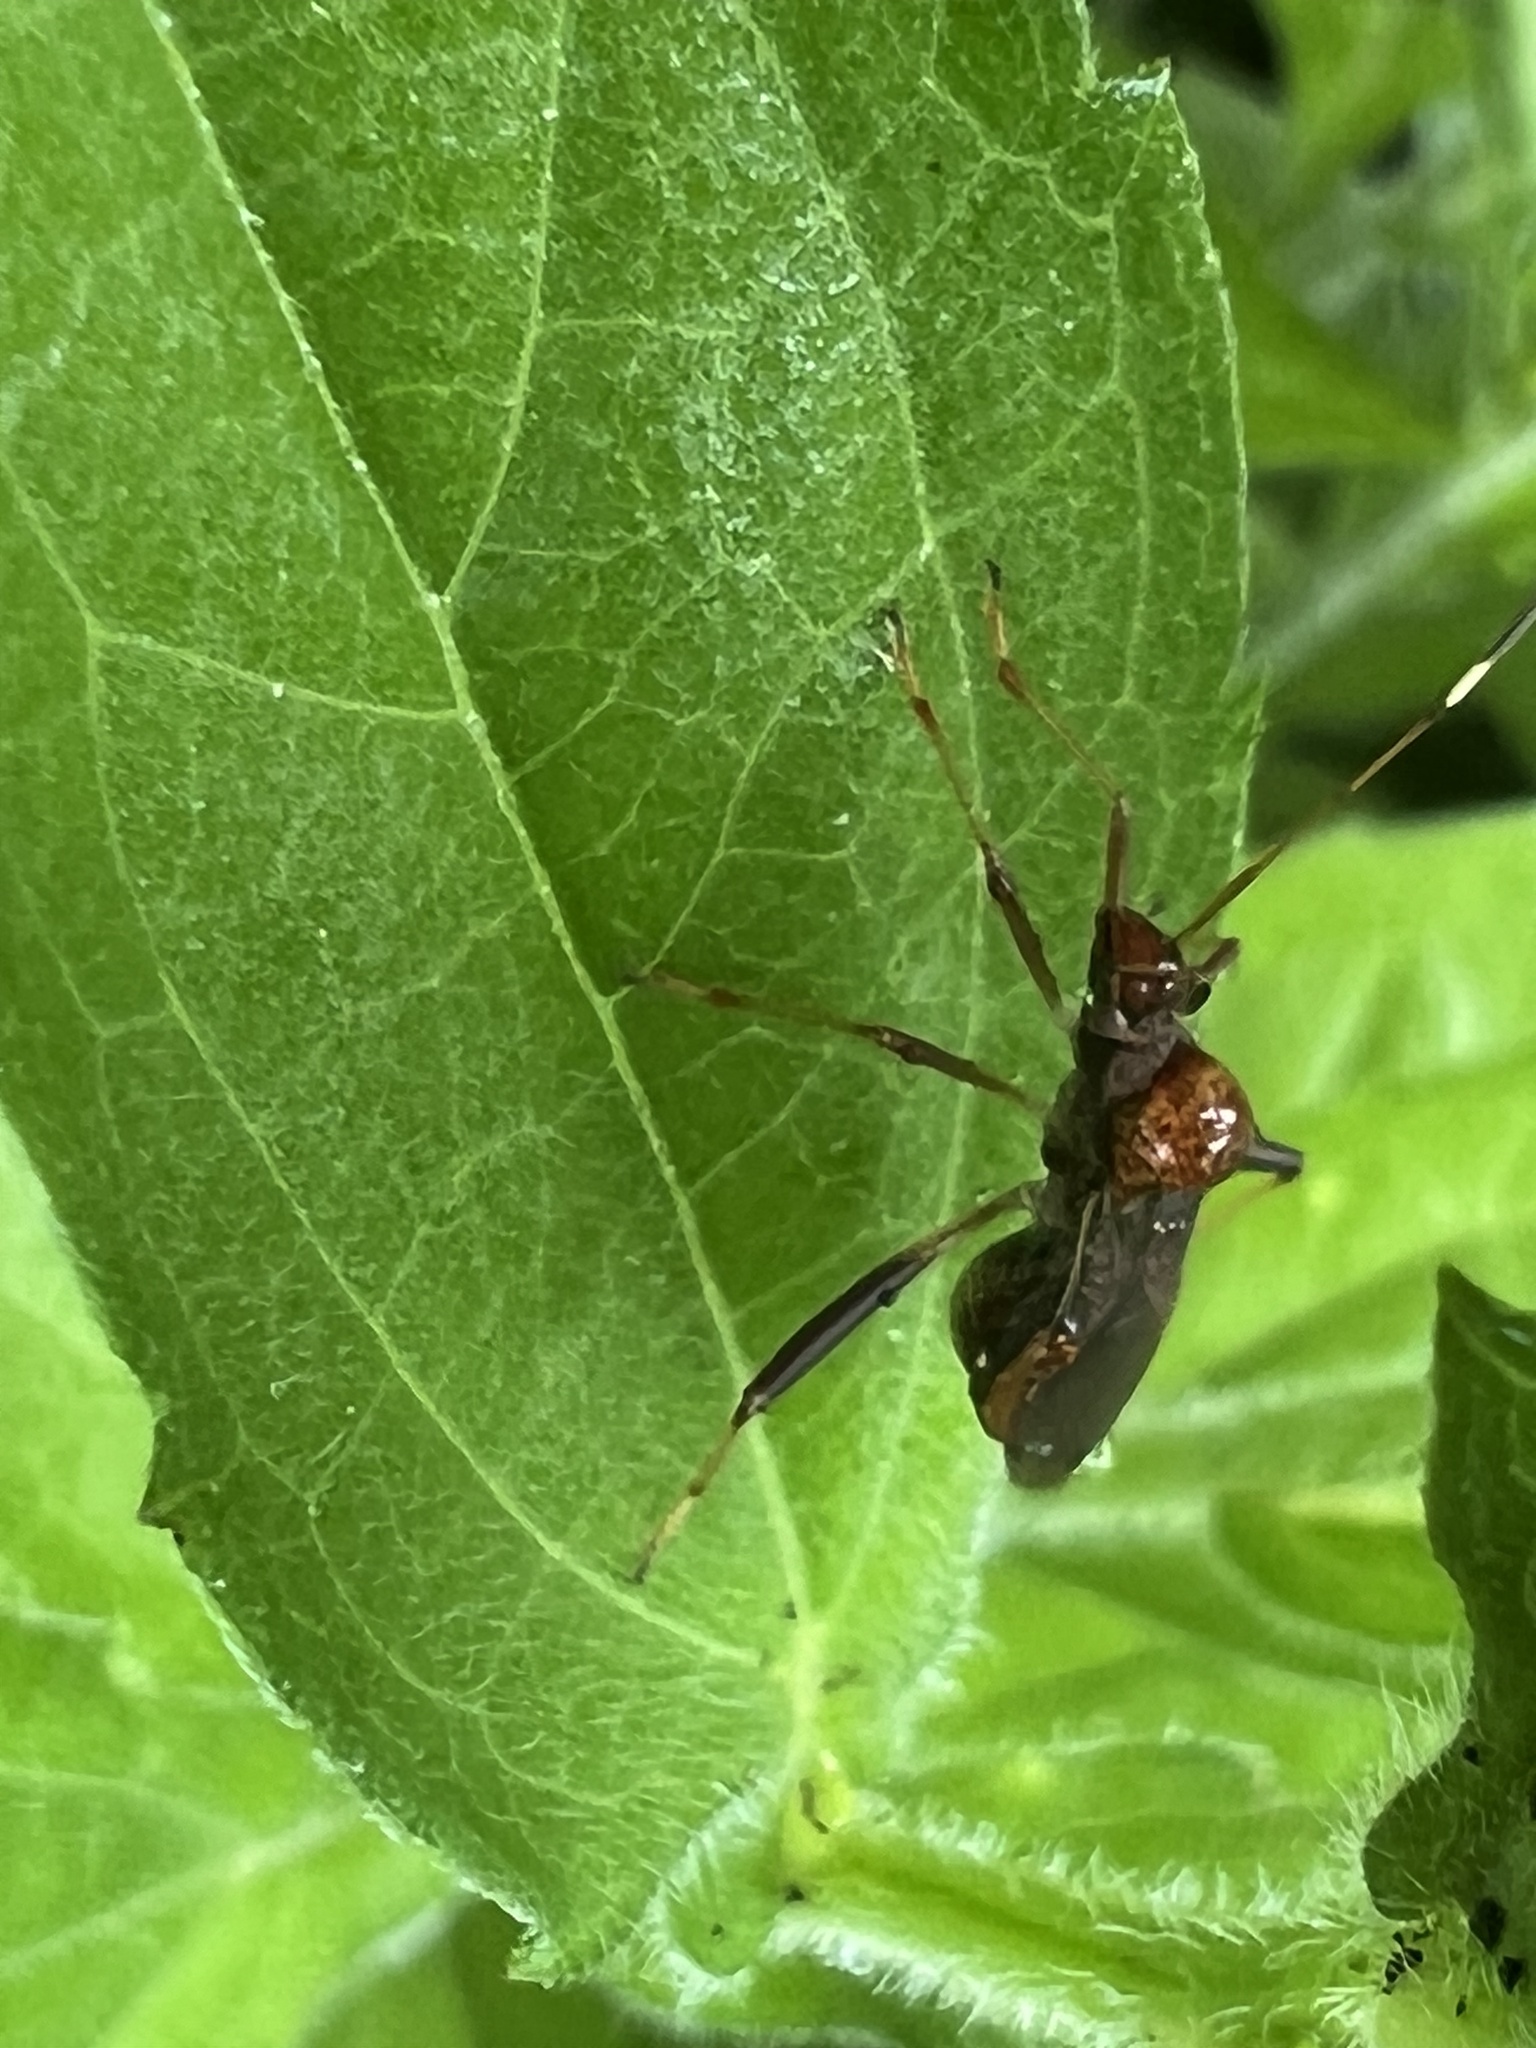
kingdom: Animalia
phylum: Arthropoda
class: Insecta
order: Hemiptera
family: Alydidae
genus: Megalotomus
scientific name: Megalotomus quinquespinosus
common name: Lupine bug
